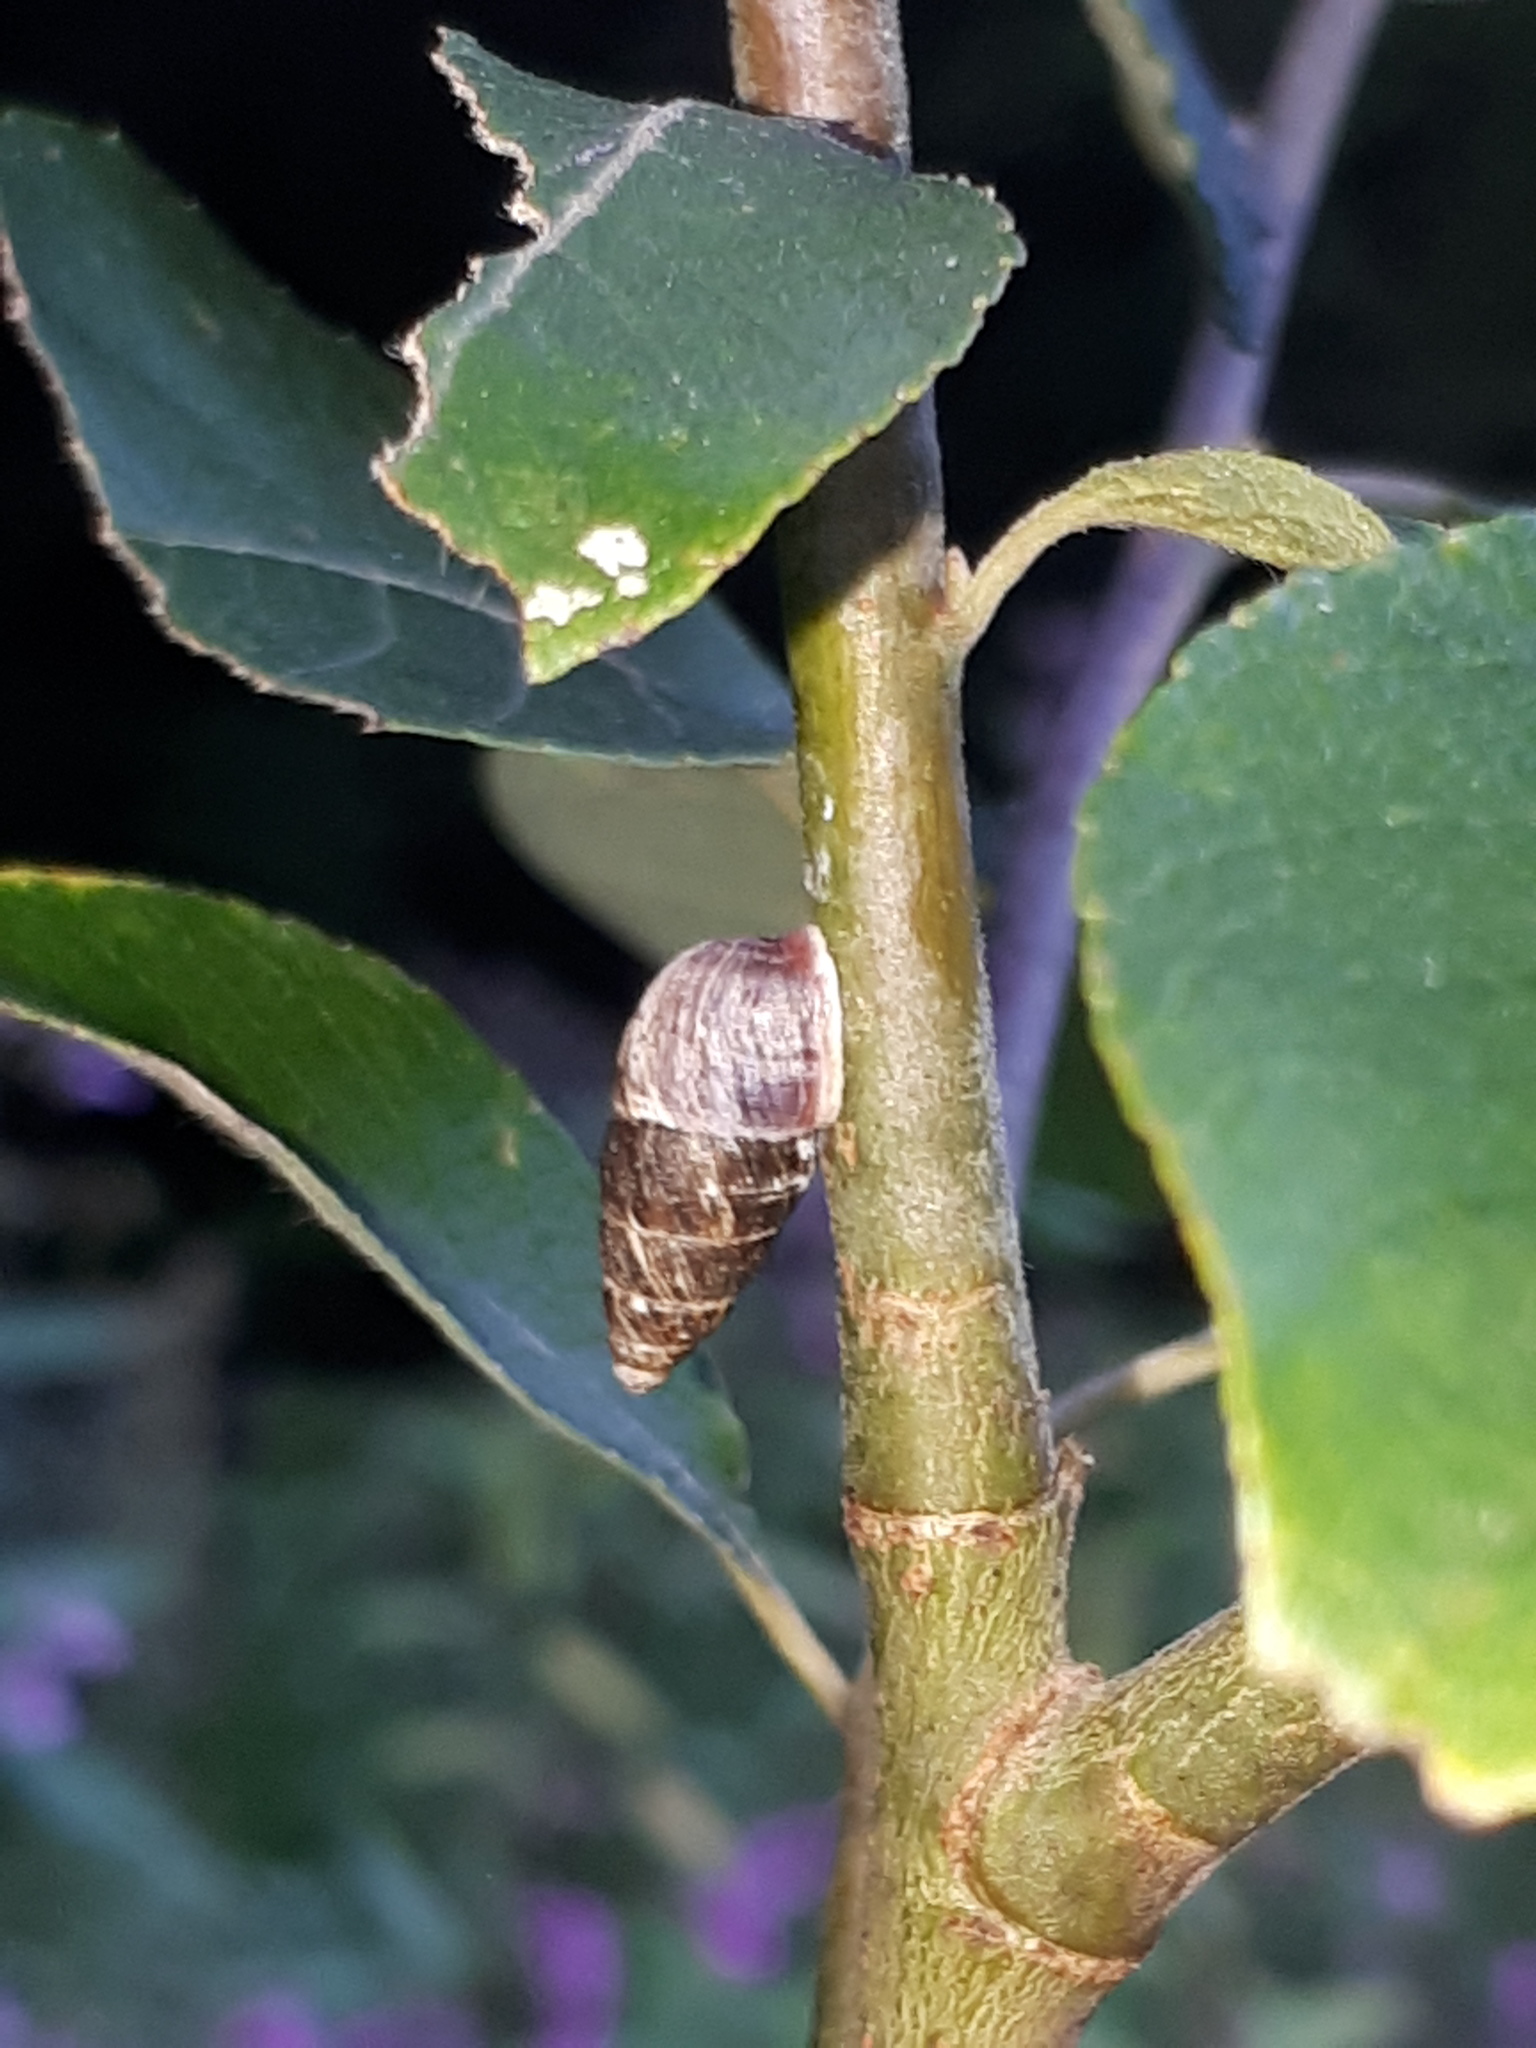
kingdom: Animalia
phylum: Mollusca
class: Gastropoda
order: Stylommatophora
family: Enidae
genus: Ena
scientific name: Ena montana
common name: Mountain bulin
